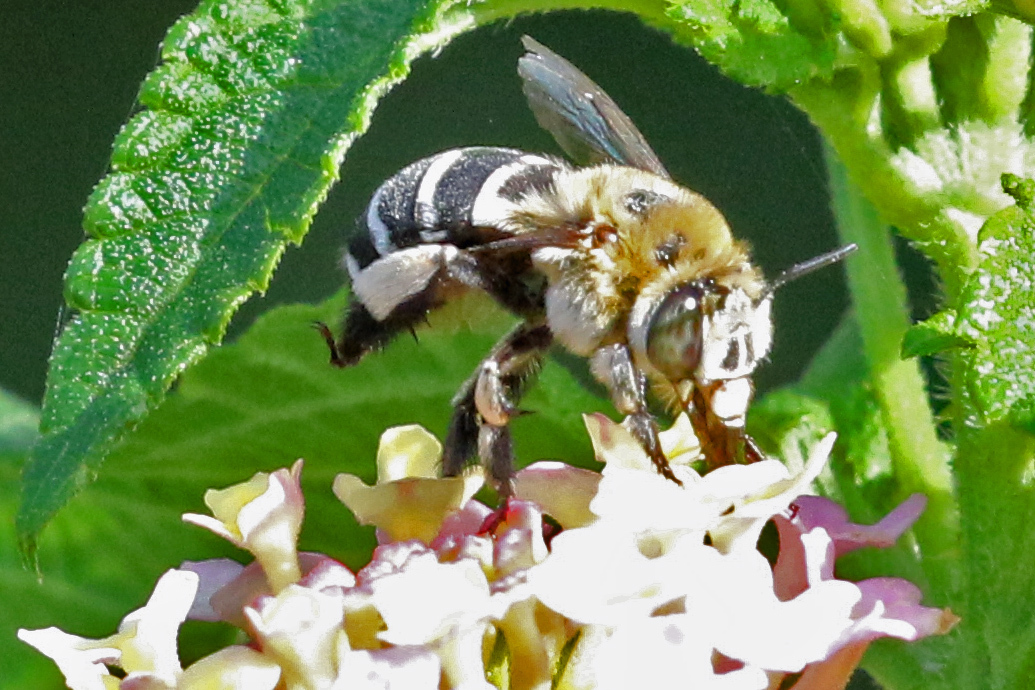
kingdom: Animalia
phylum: Arthropoda
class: Insecta
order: Hymenoptera
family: Apidae
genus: Amegilla
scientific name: Amegilla quadrifasciata
